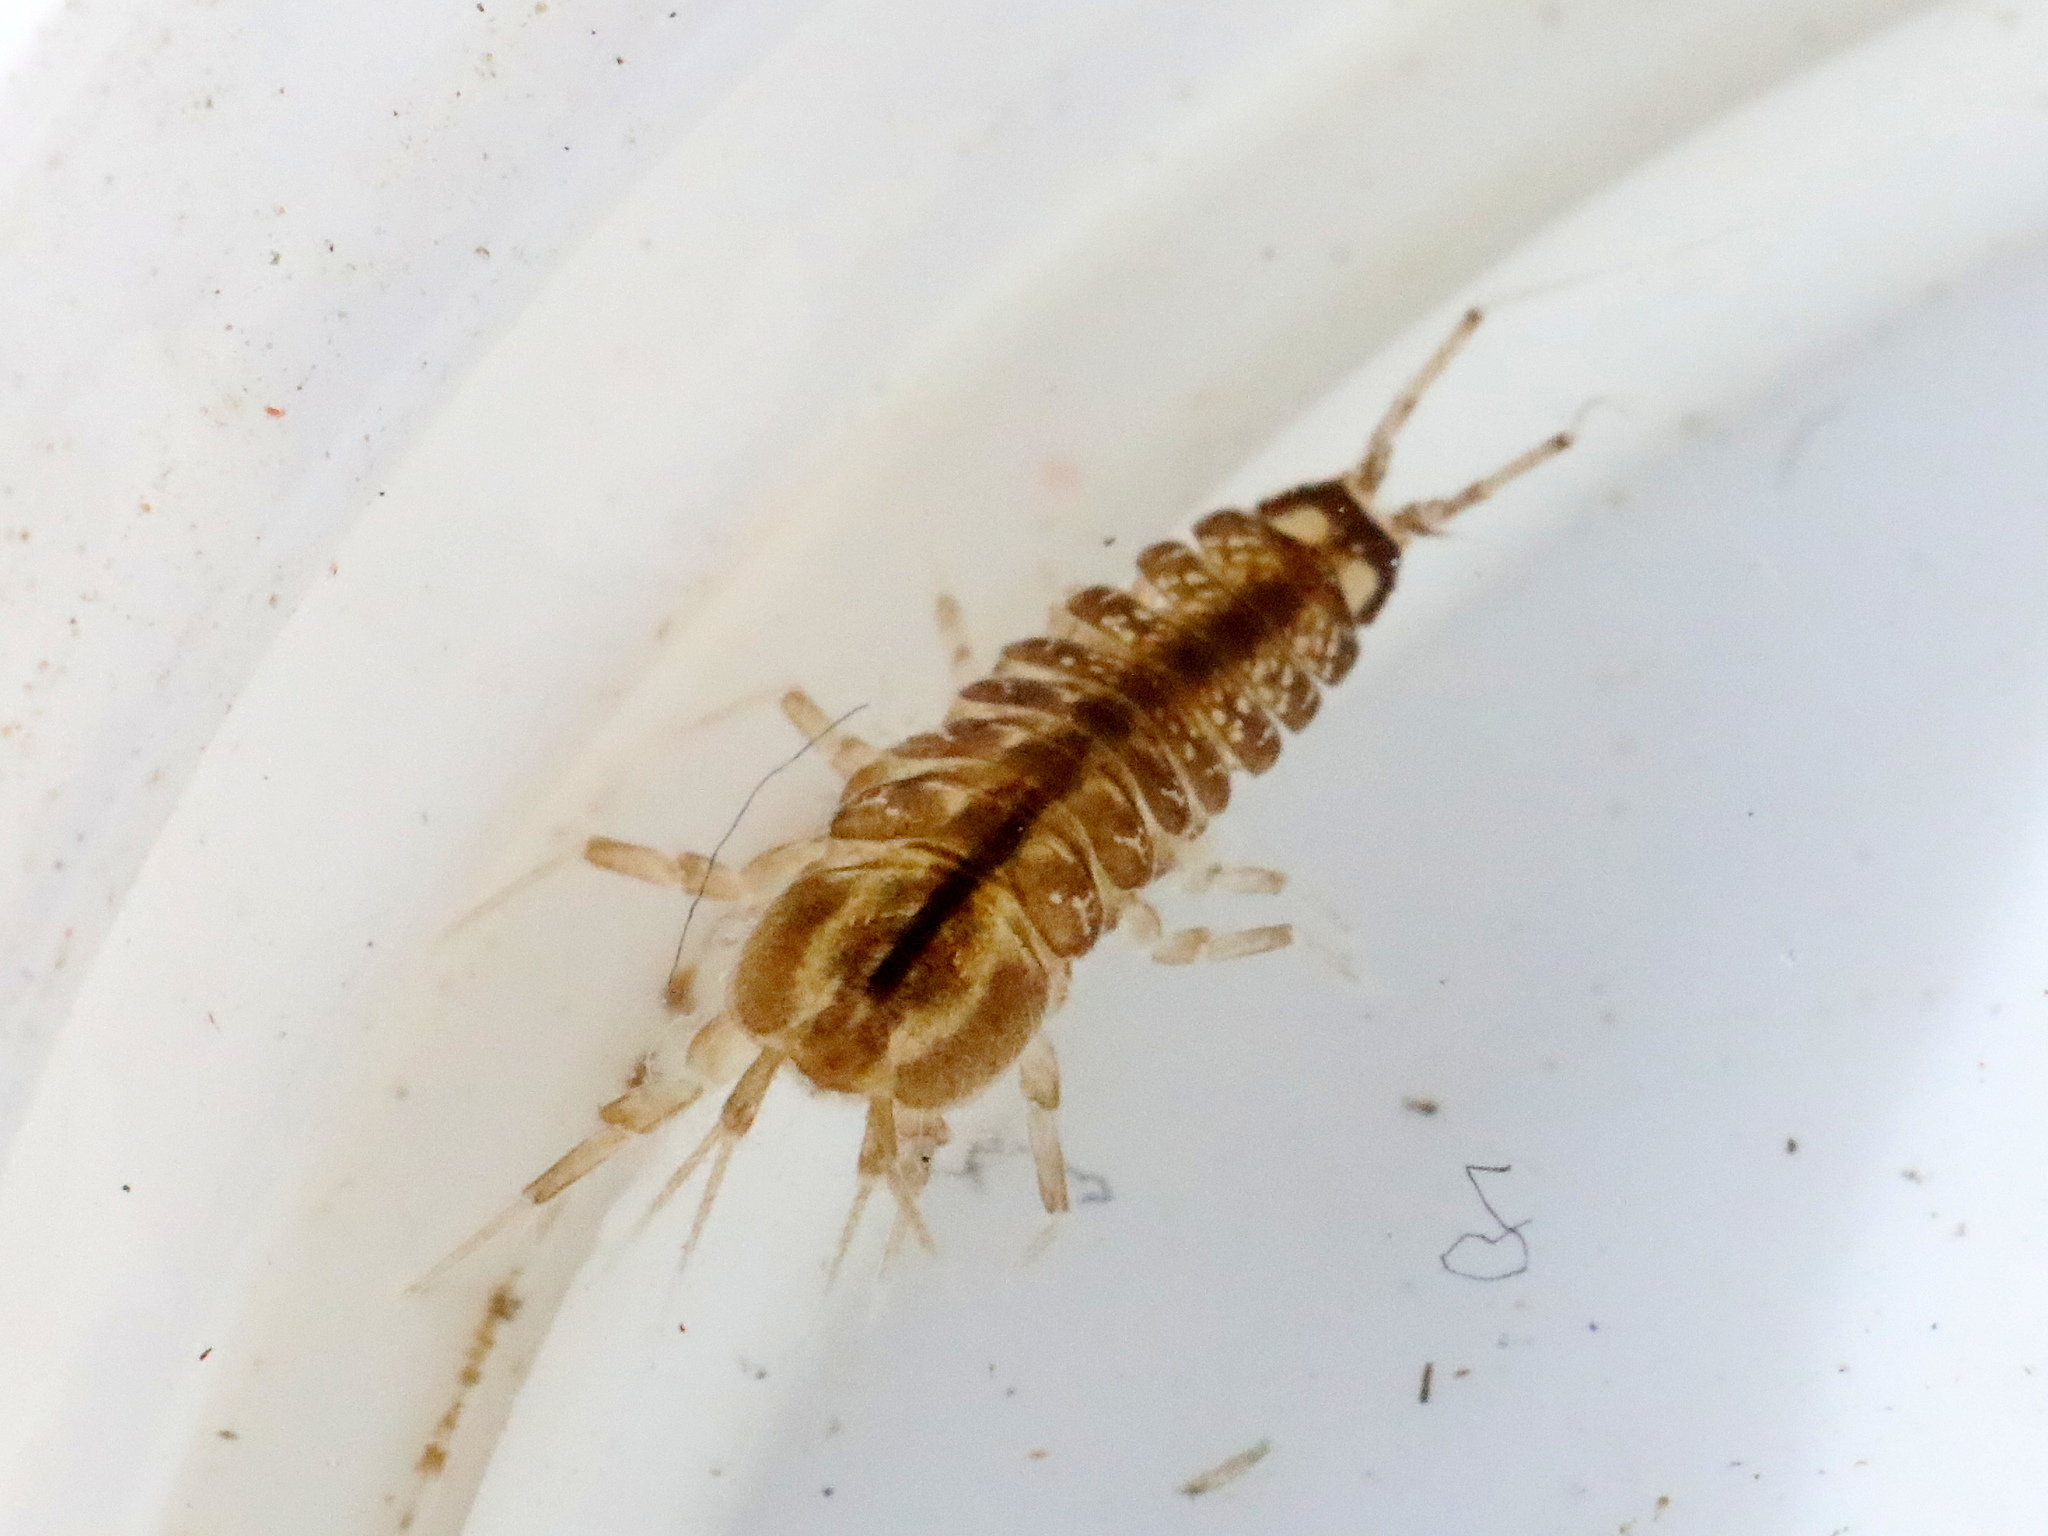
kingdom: Animalia
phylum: Arthropoda
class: Malacostraca
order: Isopoda
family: Asellidae
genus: Asellus
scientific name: Asellus aquaticus
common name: Water hog lice/slaters
